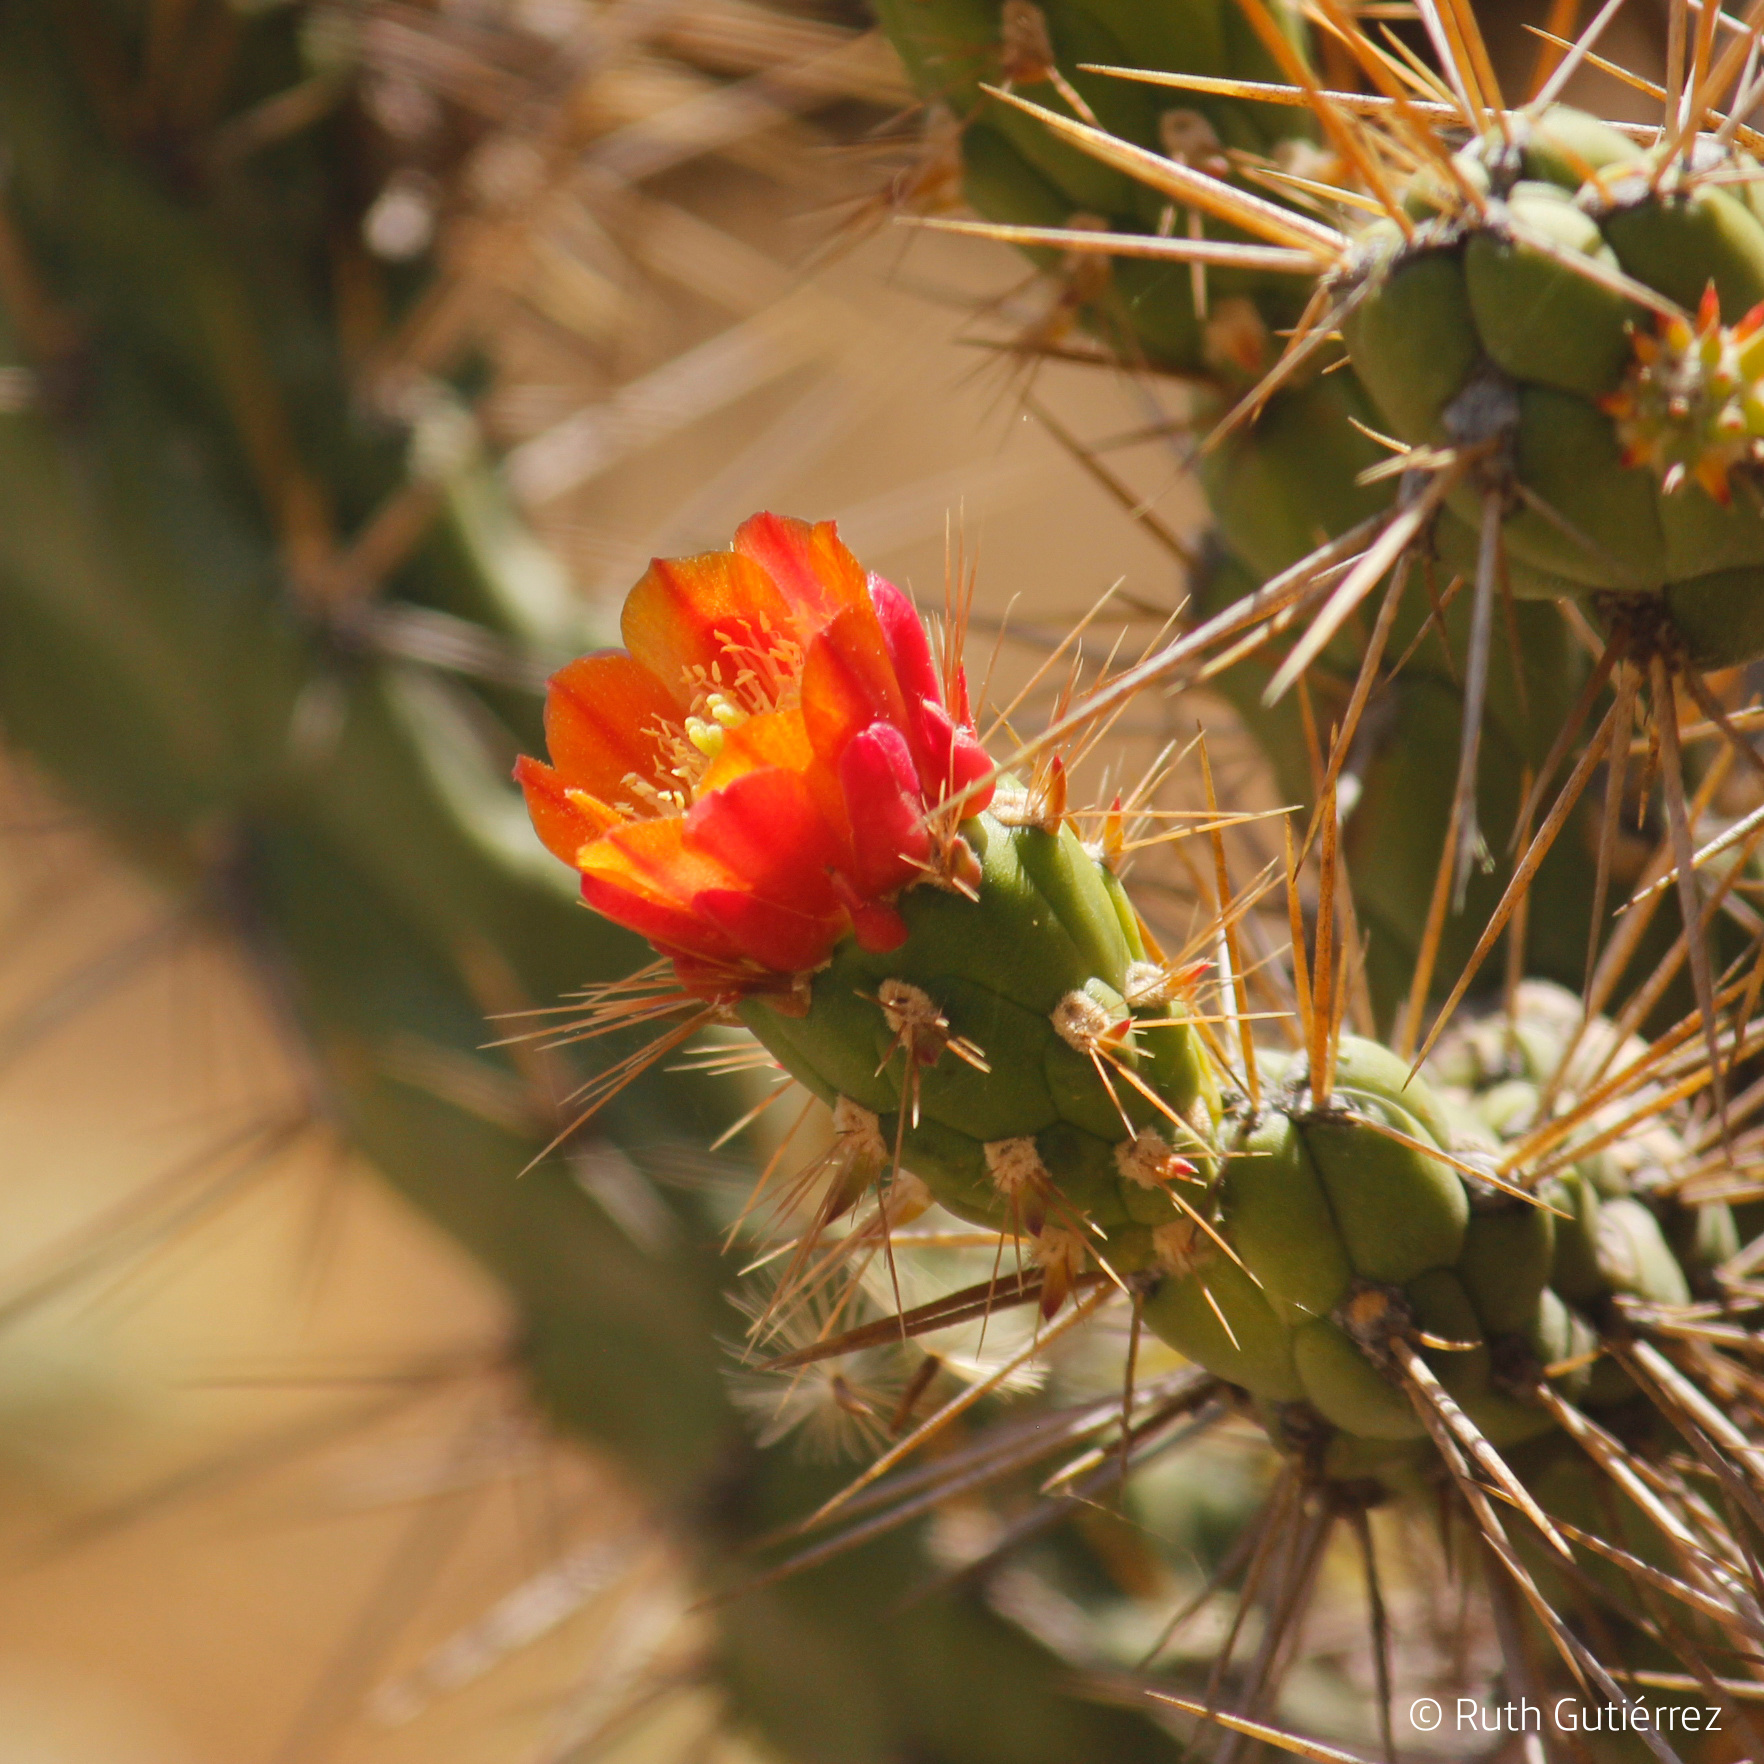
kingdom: Plantae
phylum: Tracheophyta
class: Magnoliopsida
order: Caryophyllales
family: Cactaceae
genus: Austrocylindropuntia
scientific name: Austrocylindropuntia subulata
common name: Eve's needle cactus
